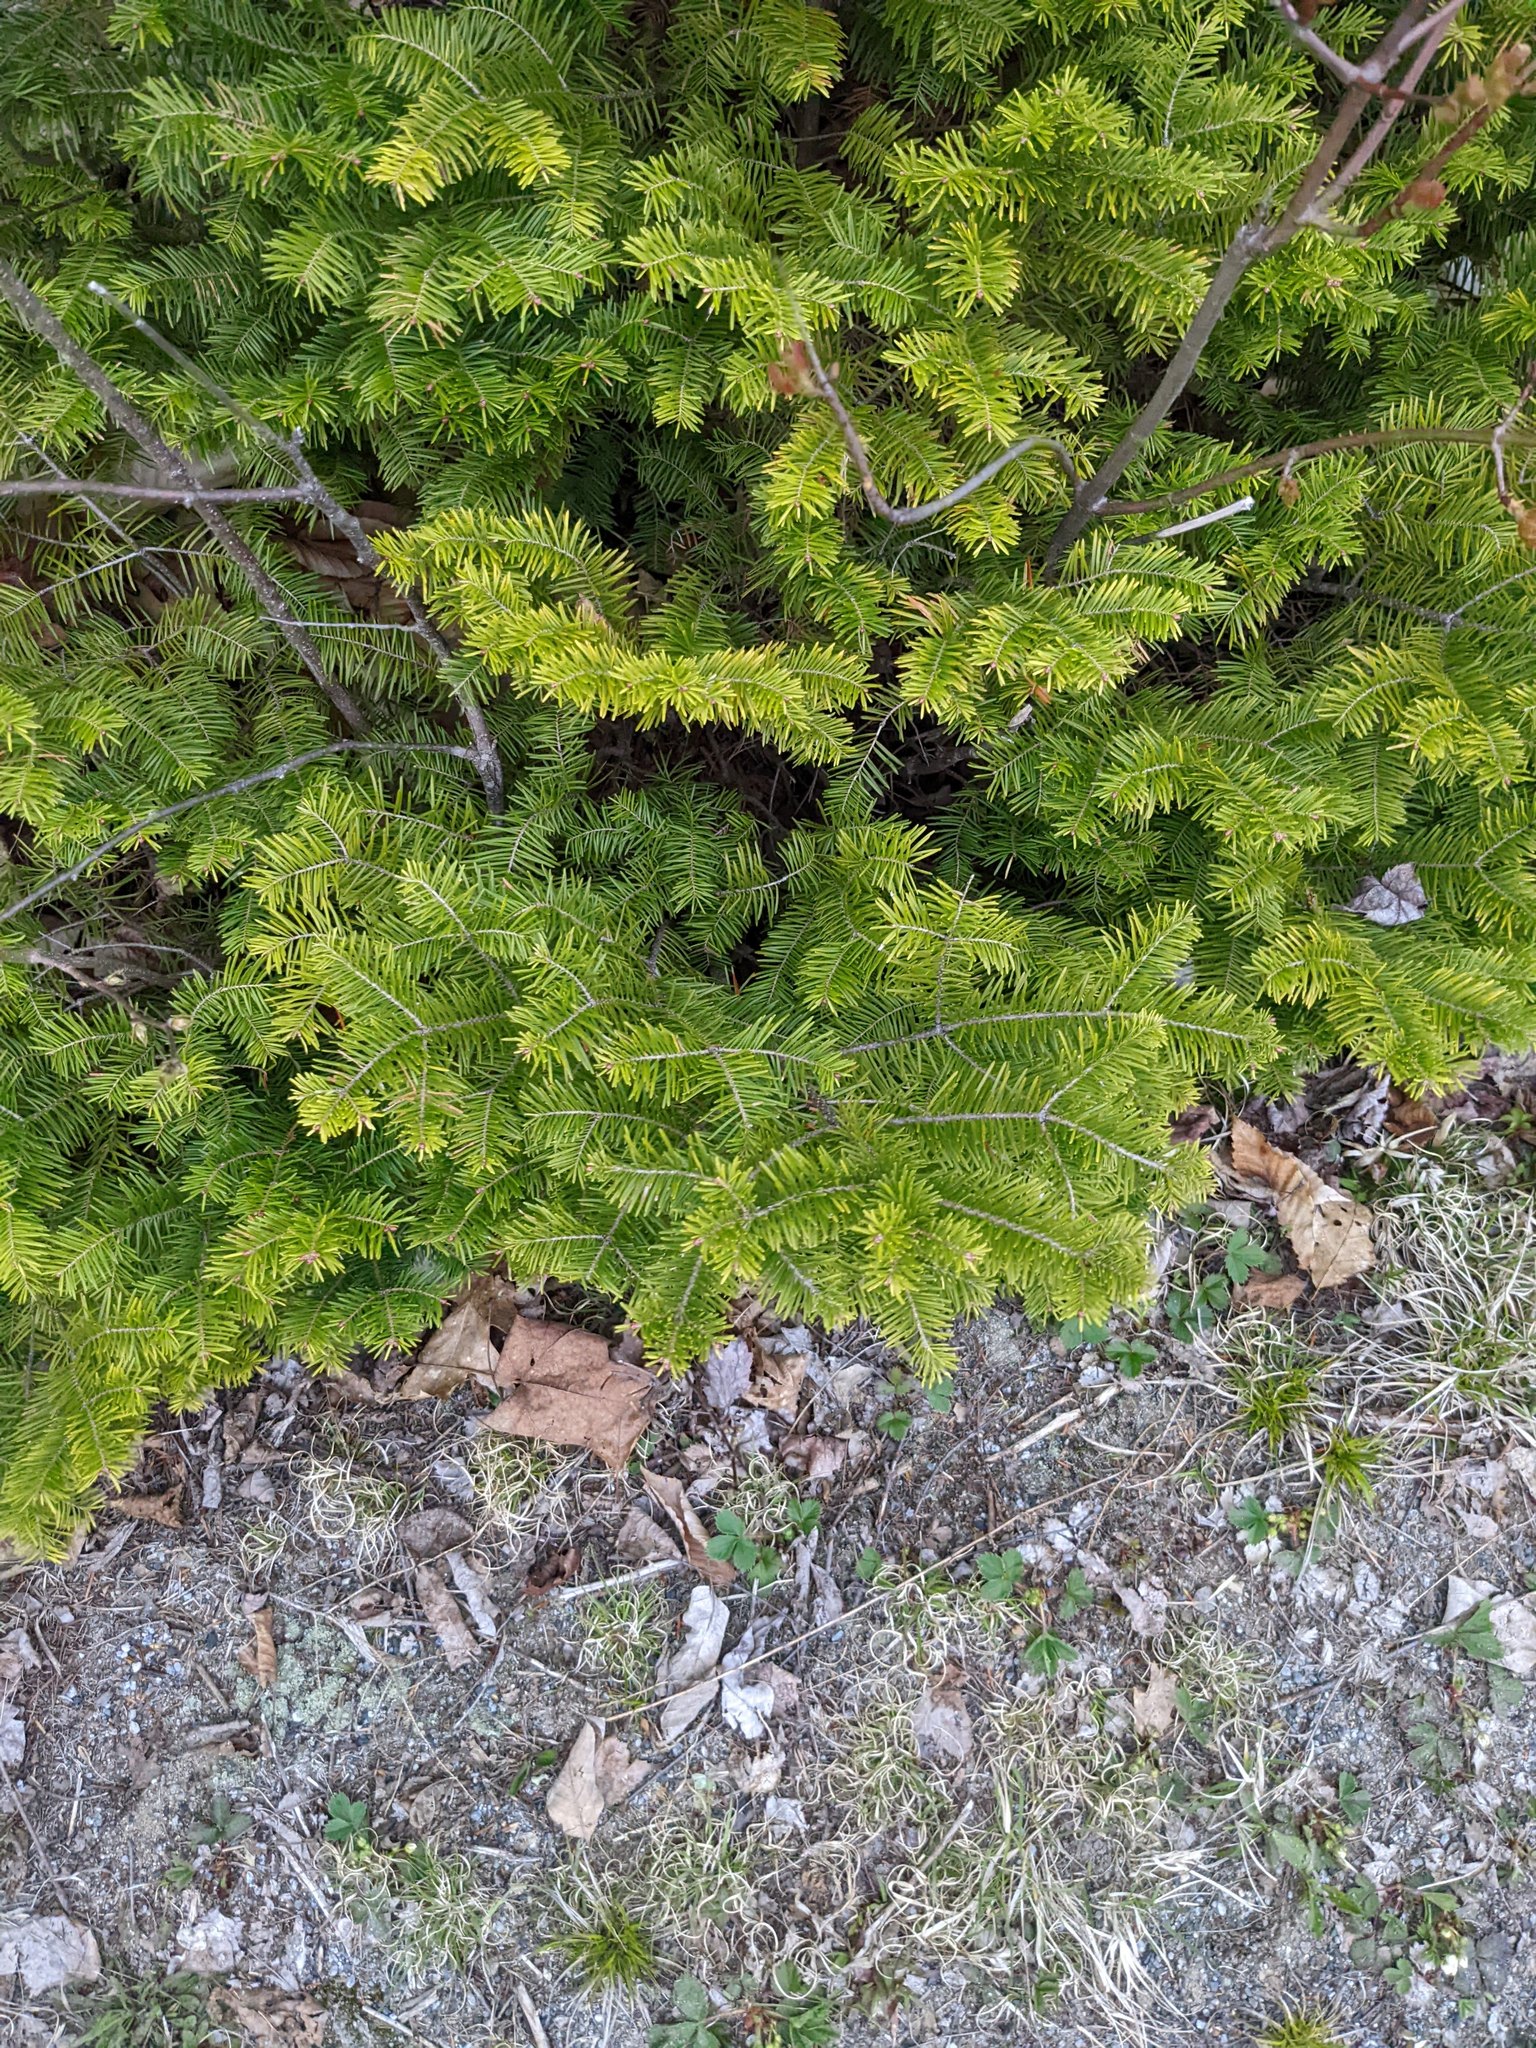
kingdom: Plantae
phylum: Tracheophyta
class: Pinopsida
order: Pinales
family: Pinaceae
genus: Abies
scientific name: Abies balsamea
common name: Balsam fir
